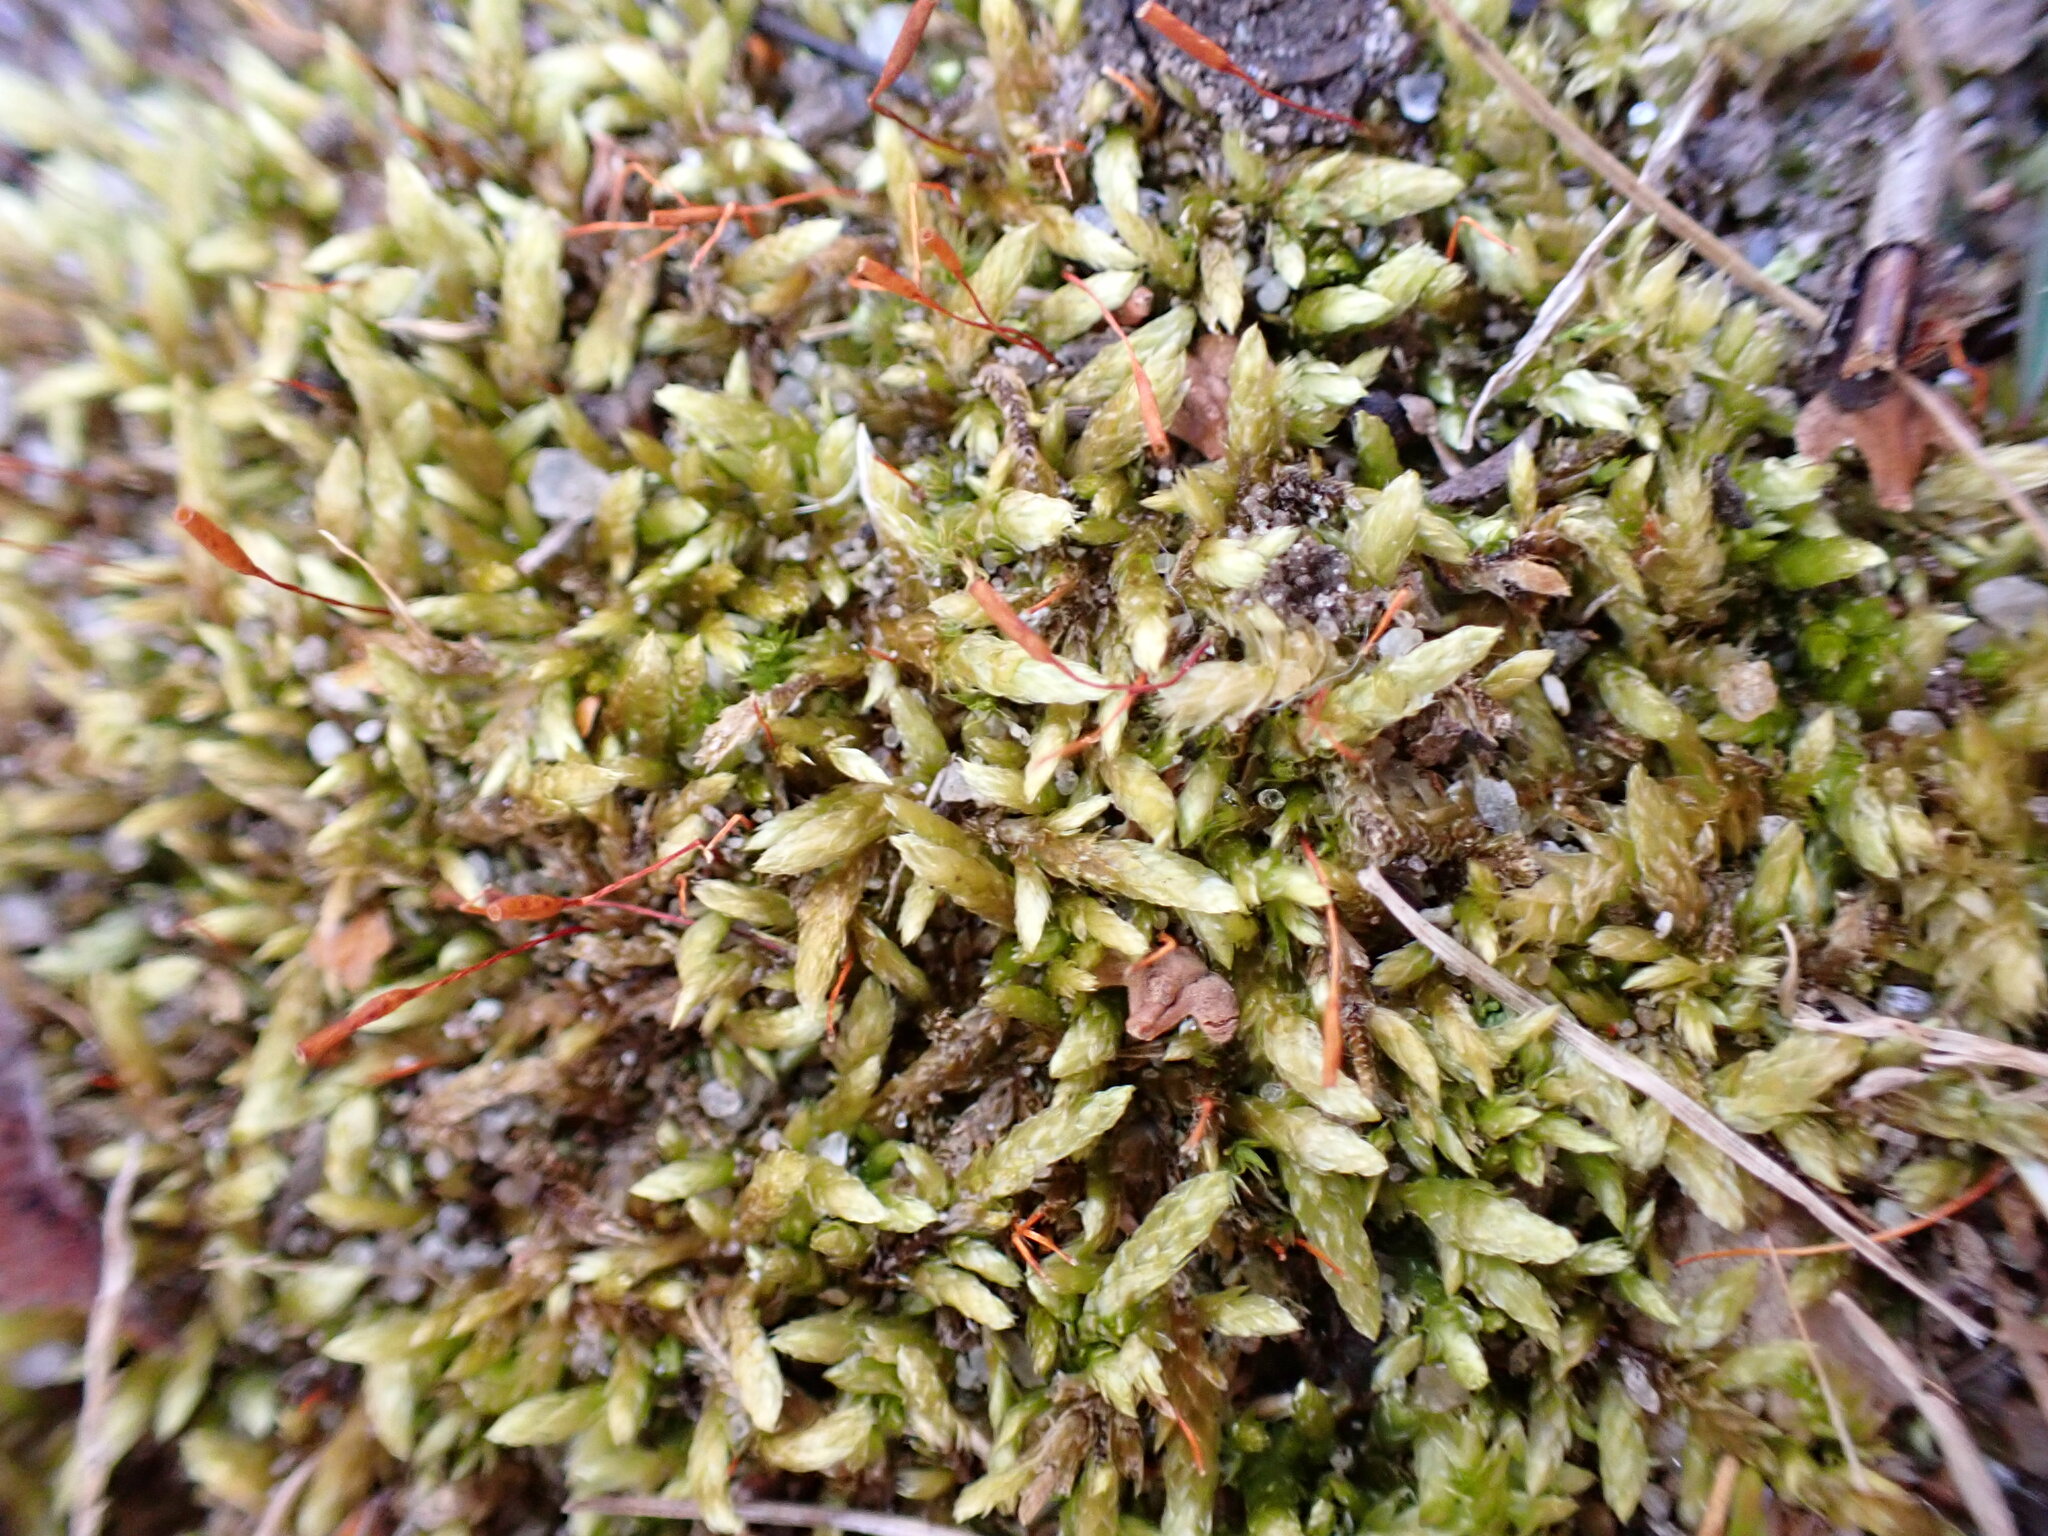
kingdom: Plantae
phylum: Bryophyta
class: Bryopsida
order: Hypnales
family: Entodontaceae
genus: Entodon
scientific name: Entodon cladorrhizans
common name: Flat-stemmed entodon moss
